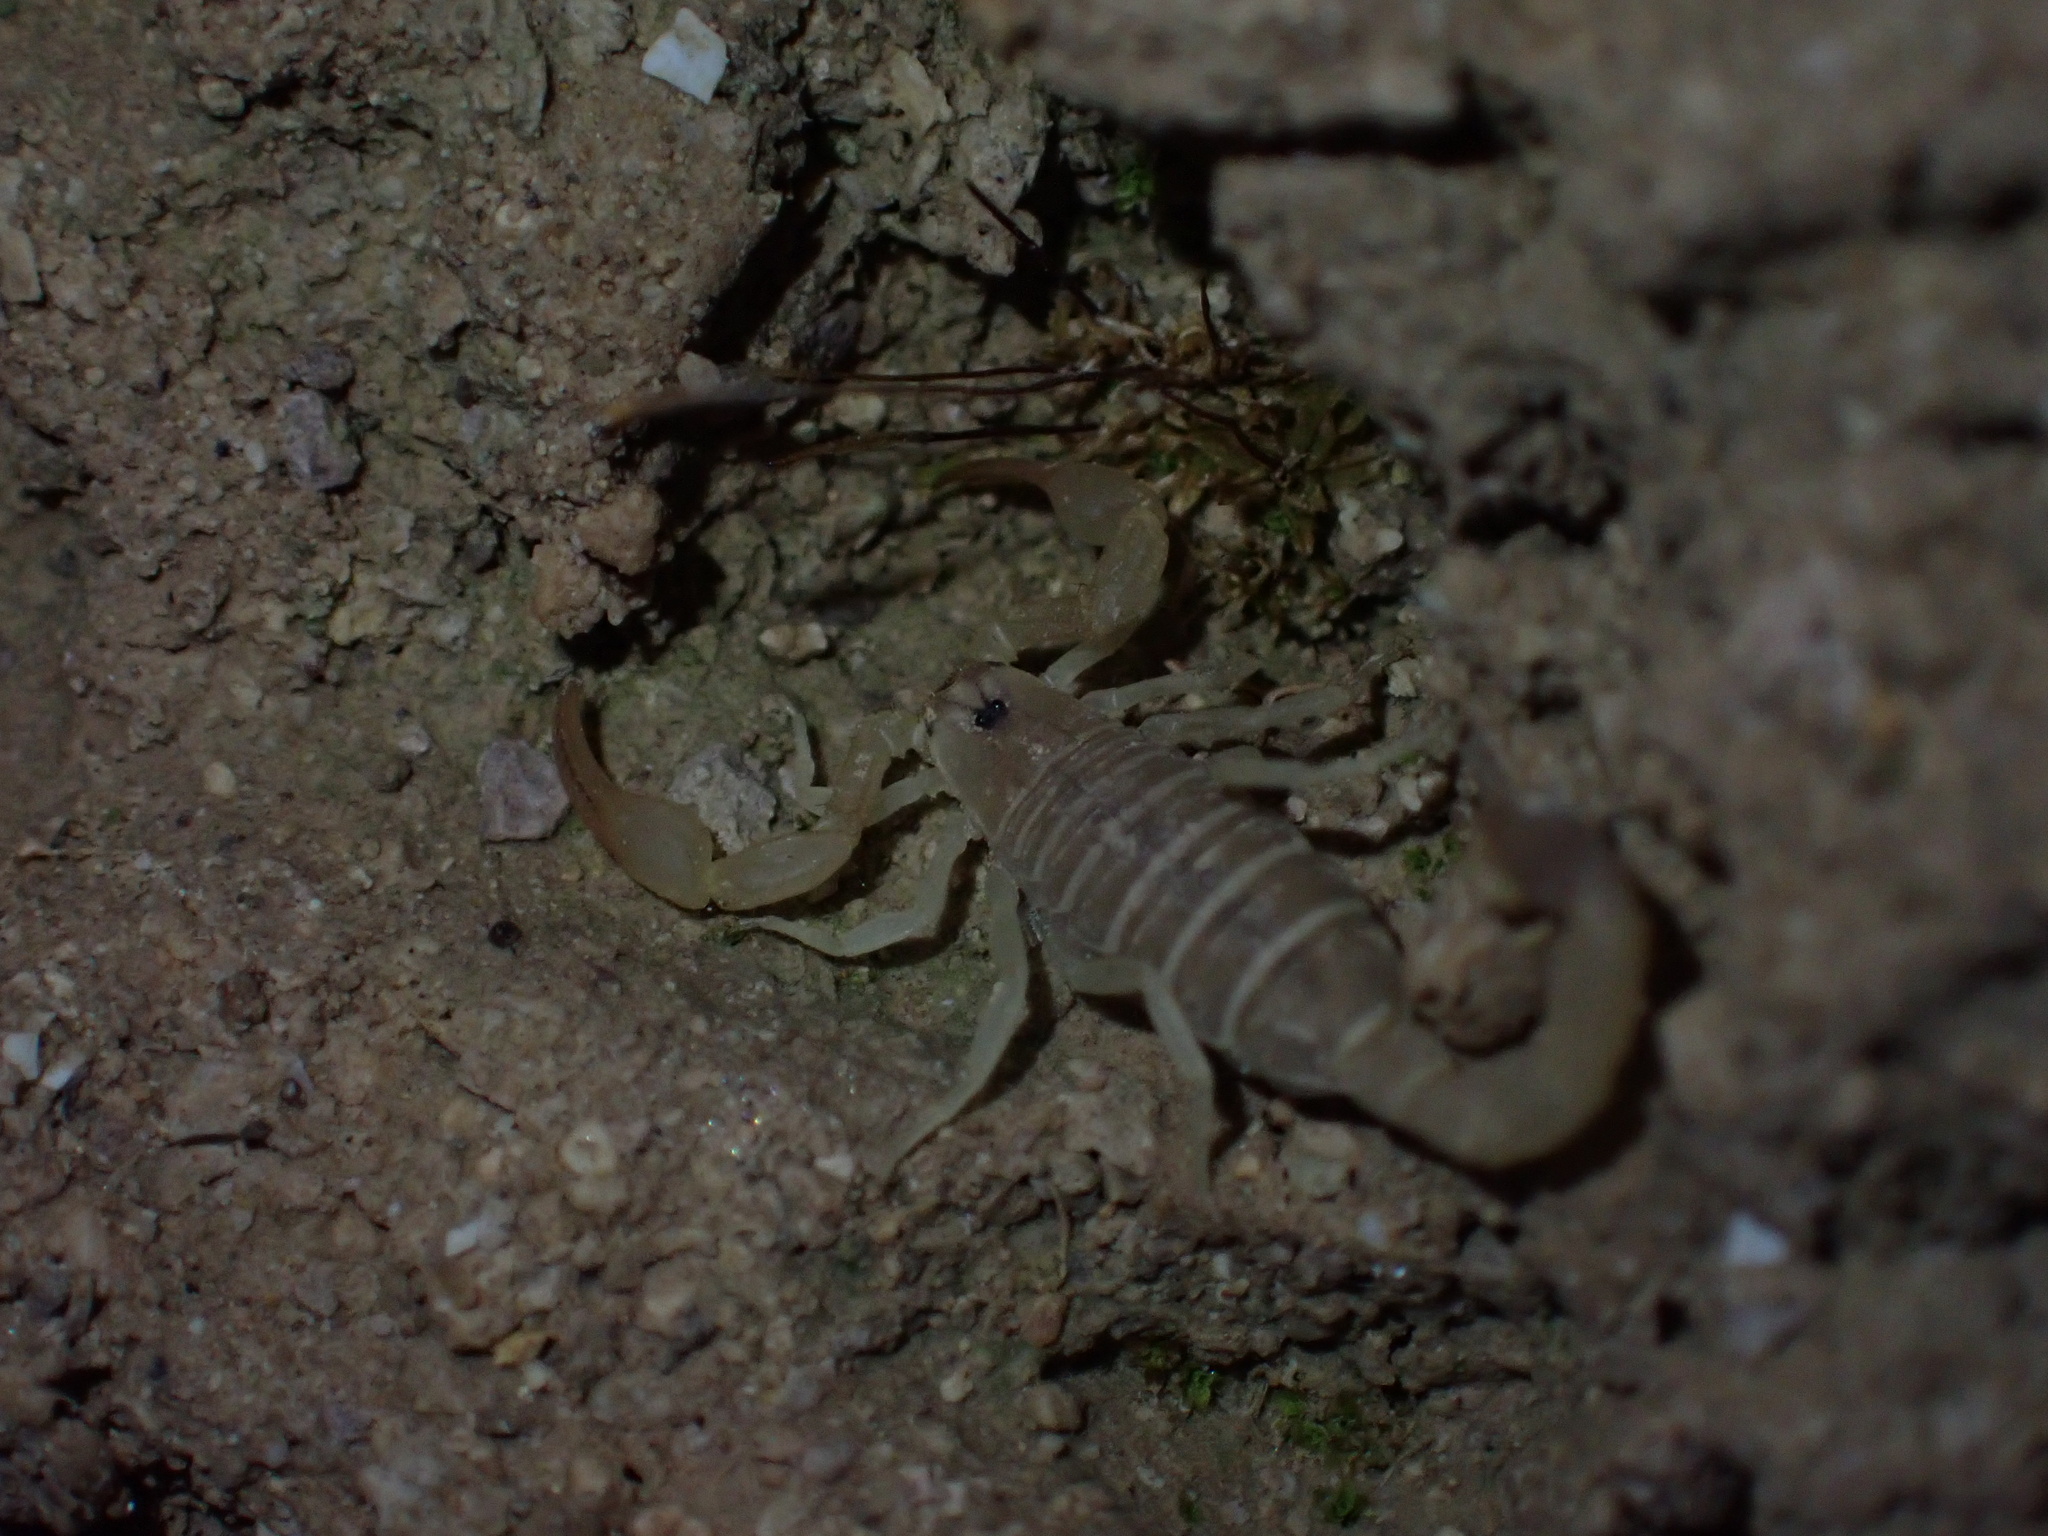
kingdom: Animalia
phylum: Arthropoda
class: Arachnida
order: Scorpiones
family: Buthidae
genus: Razianus
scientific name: Razianus zarudnyi
